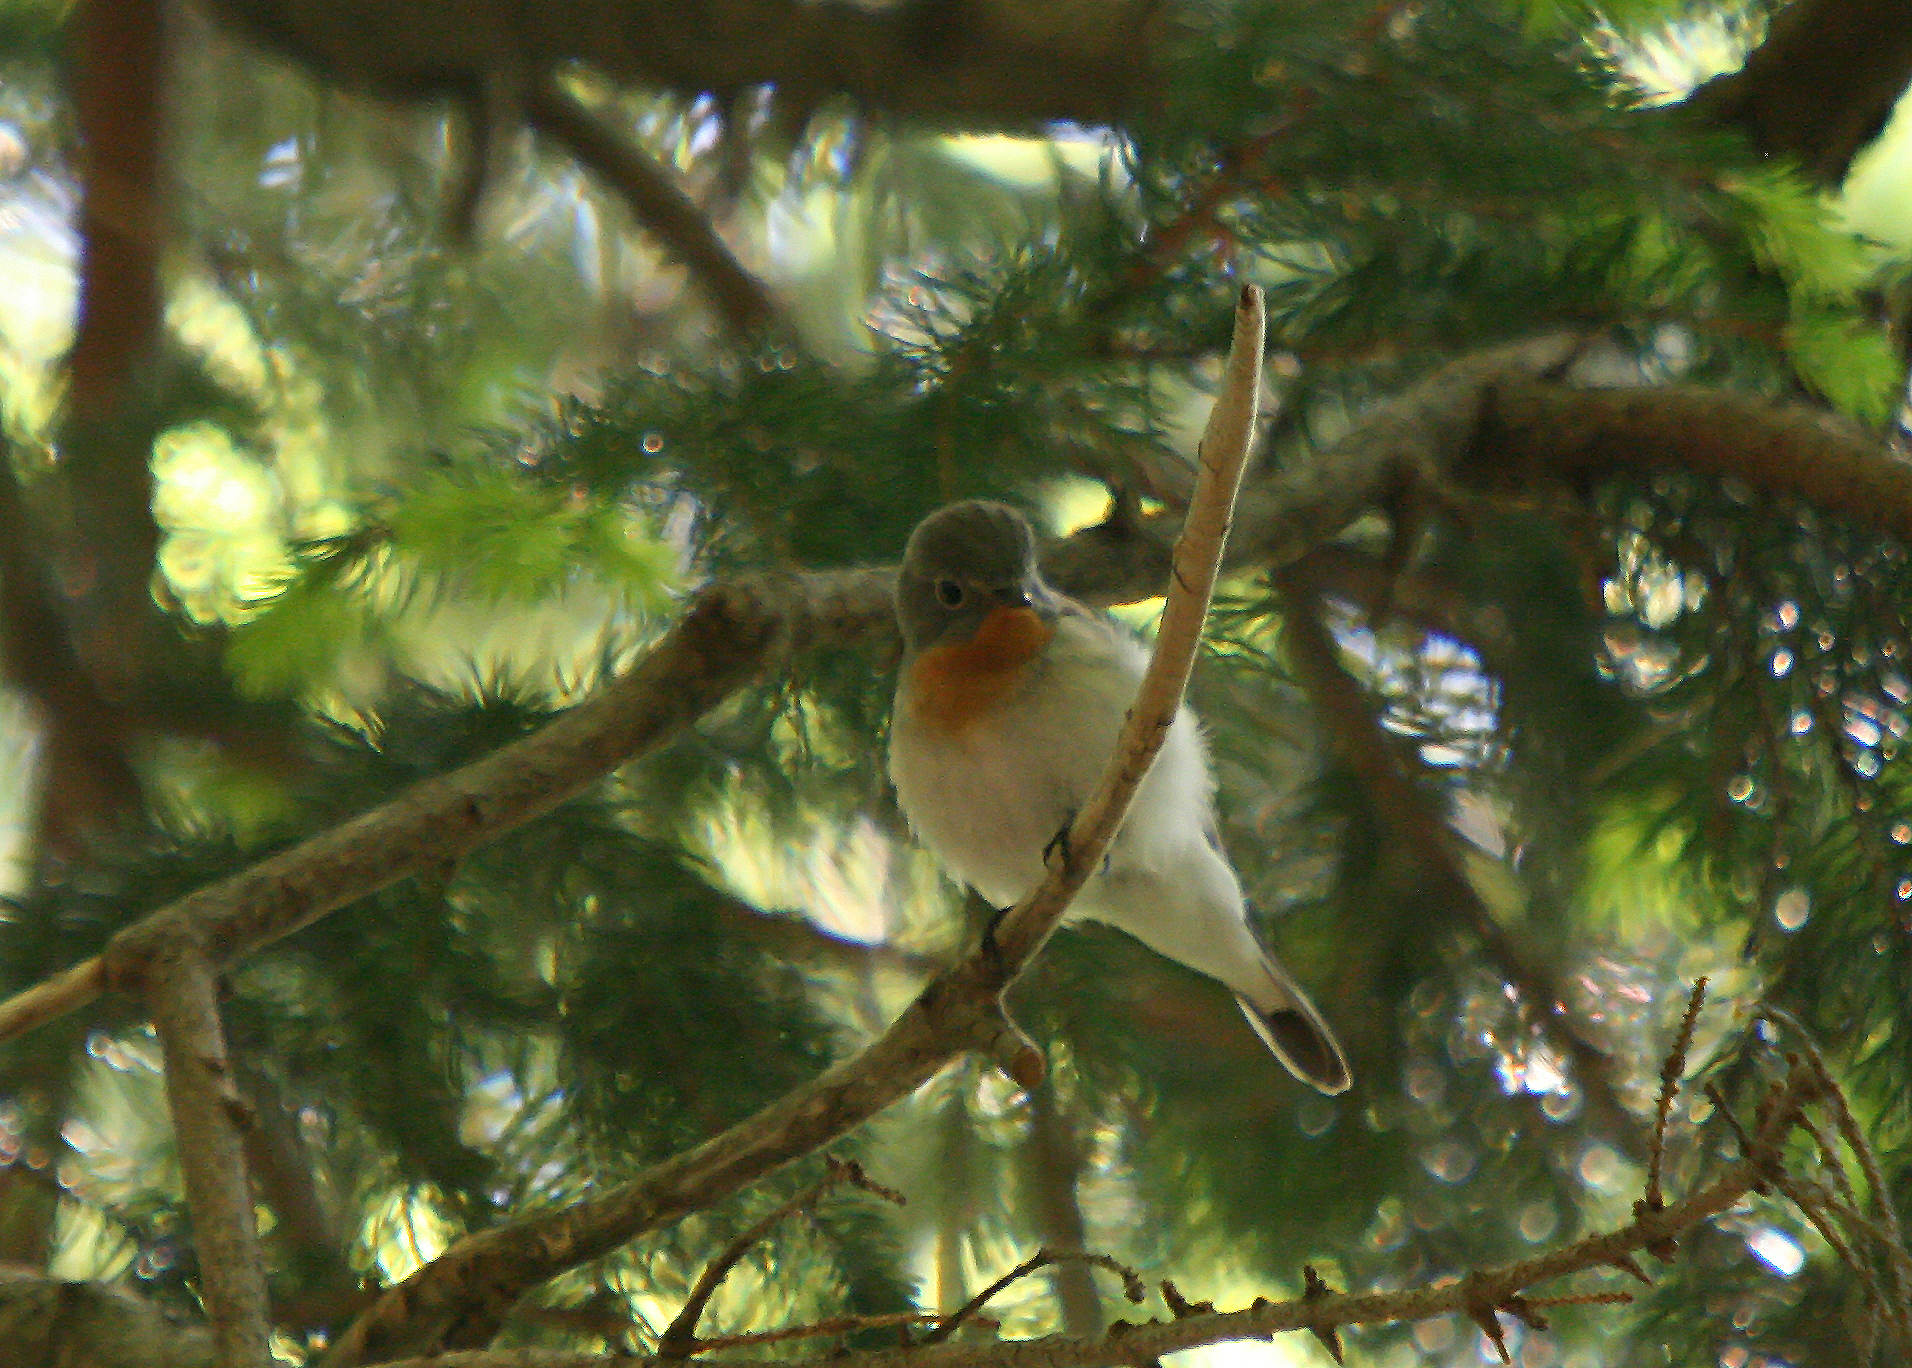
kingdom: Animalia
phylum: Chordata
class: Aves
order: Passeriformes
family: Muscicapidae
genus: Ficedula
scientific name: Ficedula parva
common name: Red-breasted flycatcher
